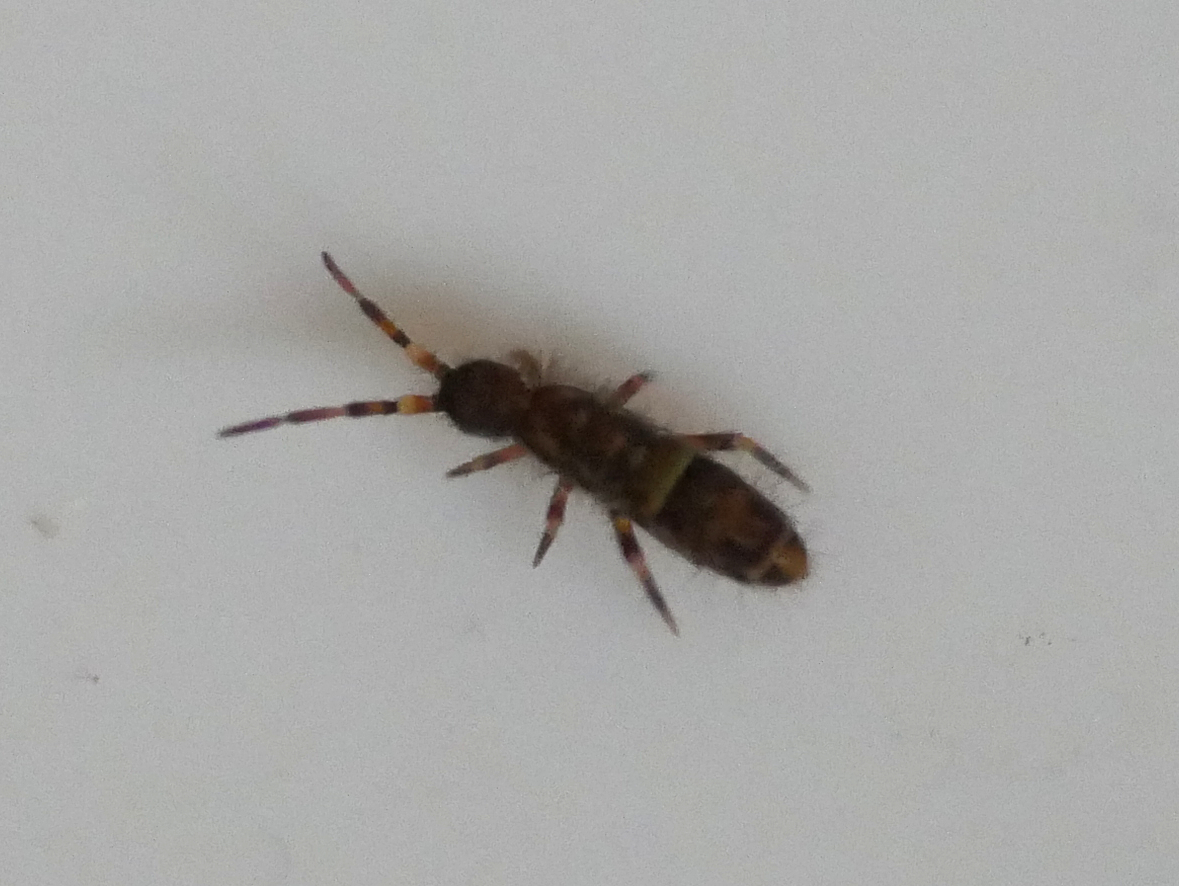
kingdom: Animalia
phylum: Arthropoda
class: Collembola
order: Entomobryomorpha
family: Orchesellidae
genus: Orchesella
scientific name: Orchesella cincta
